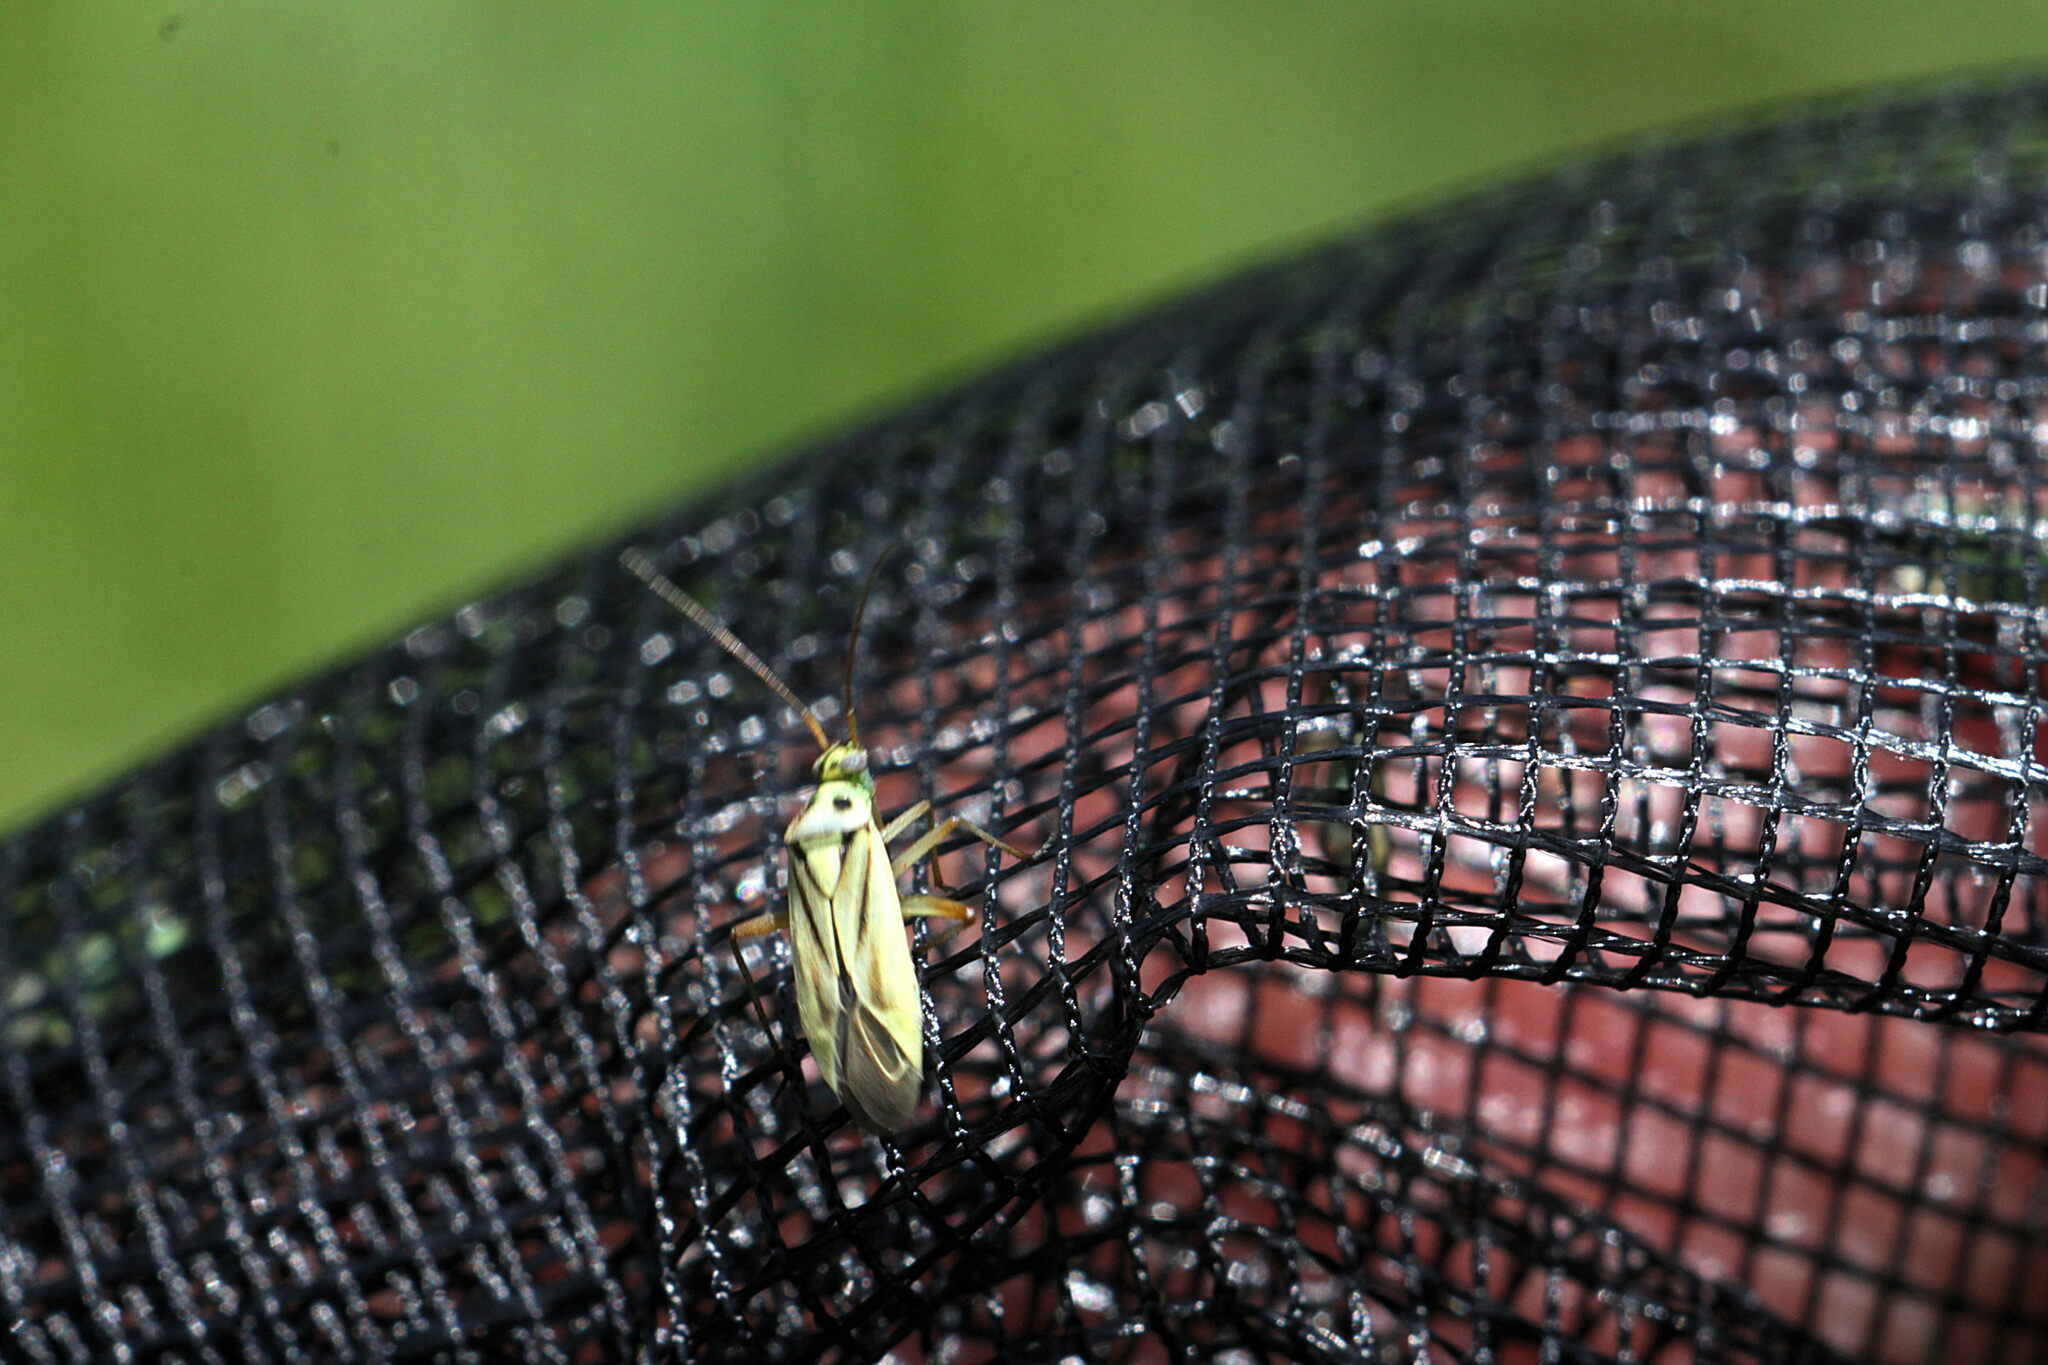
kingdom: Animalia
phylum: Arthropoda
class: Insecta
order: Hemiptera
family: Miridae
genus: Stenotus
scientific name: Stenotus binotatus
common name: Plant bug
